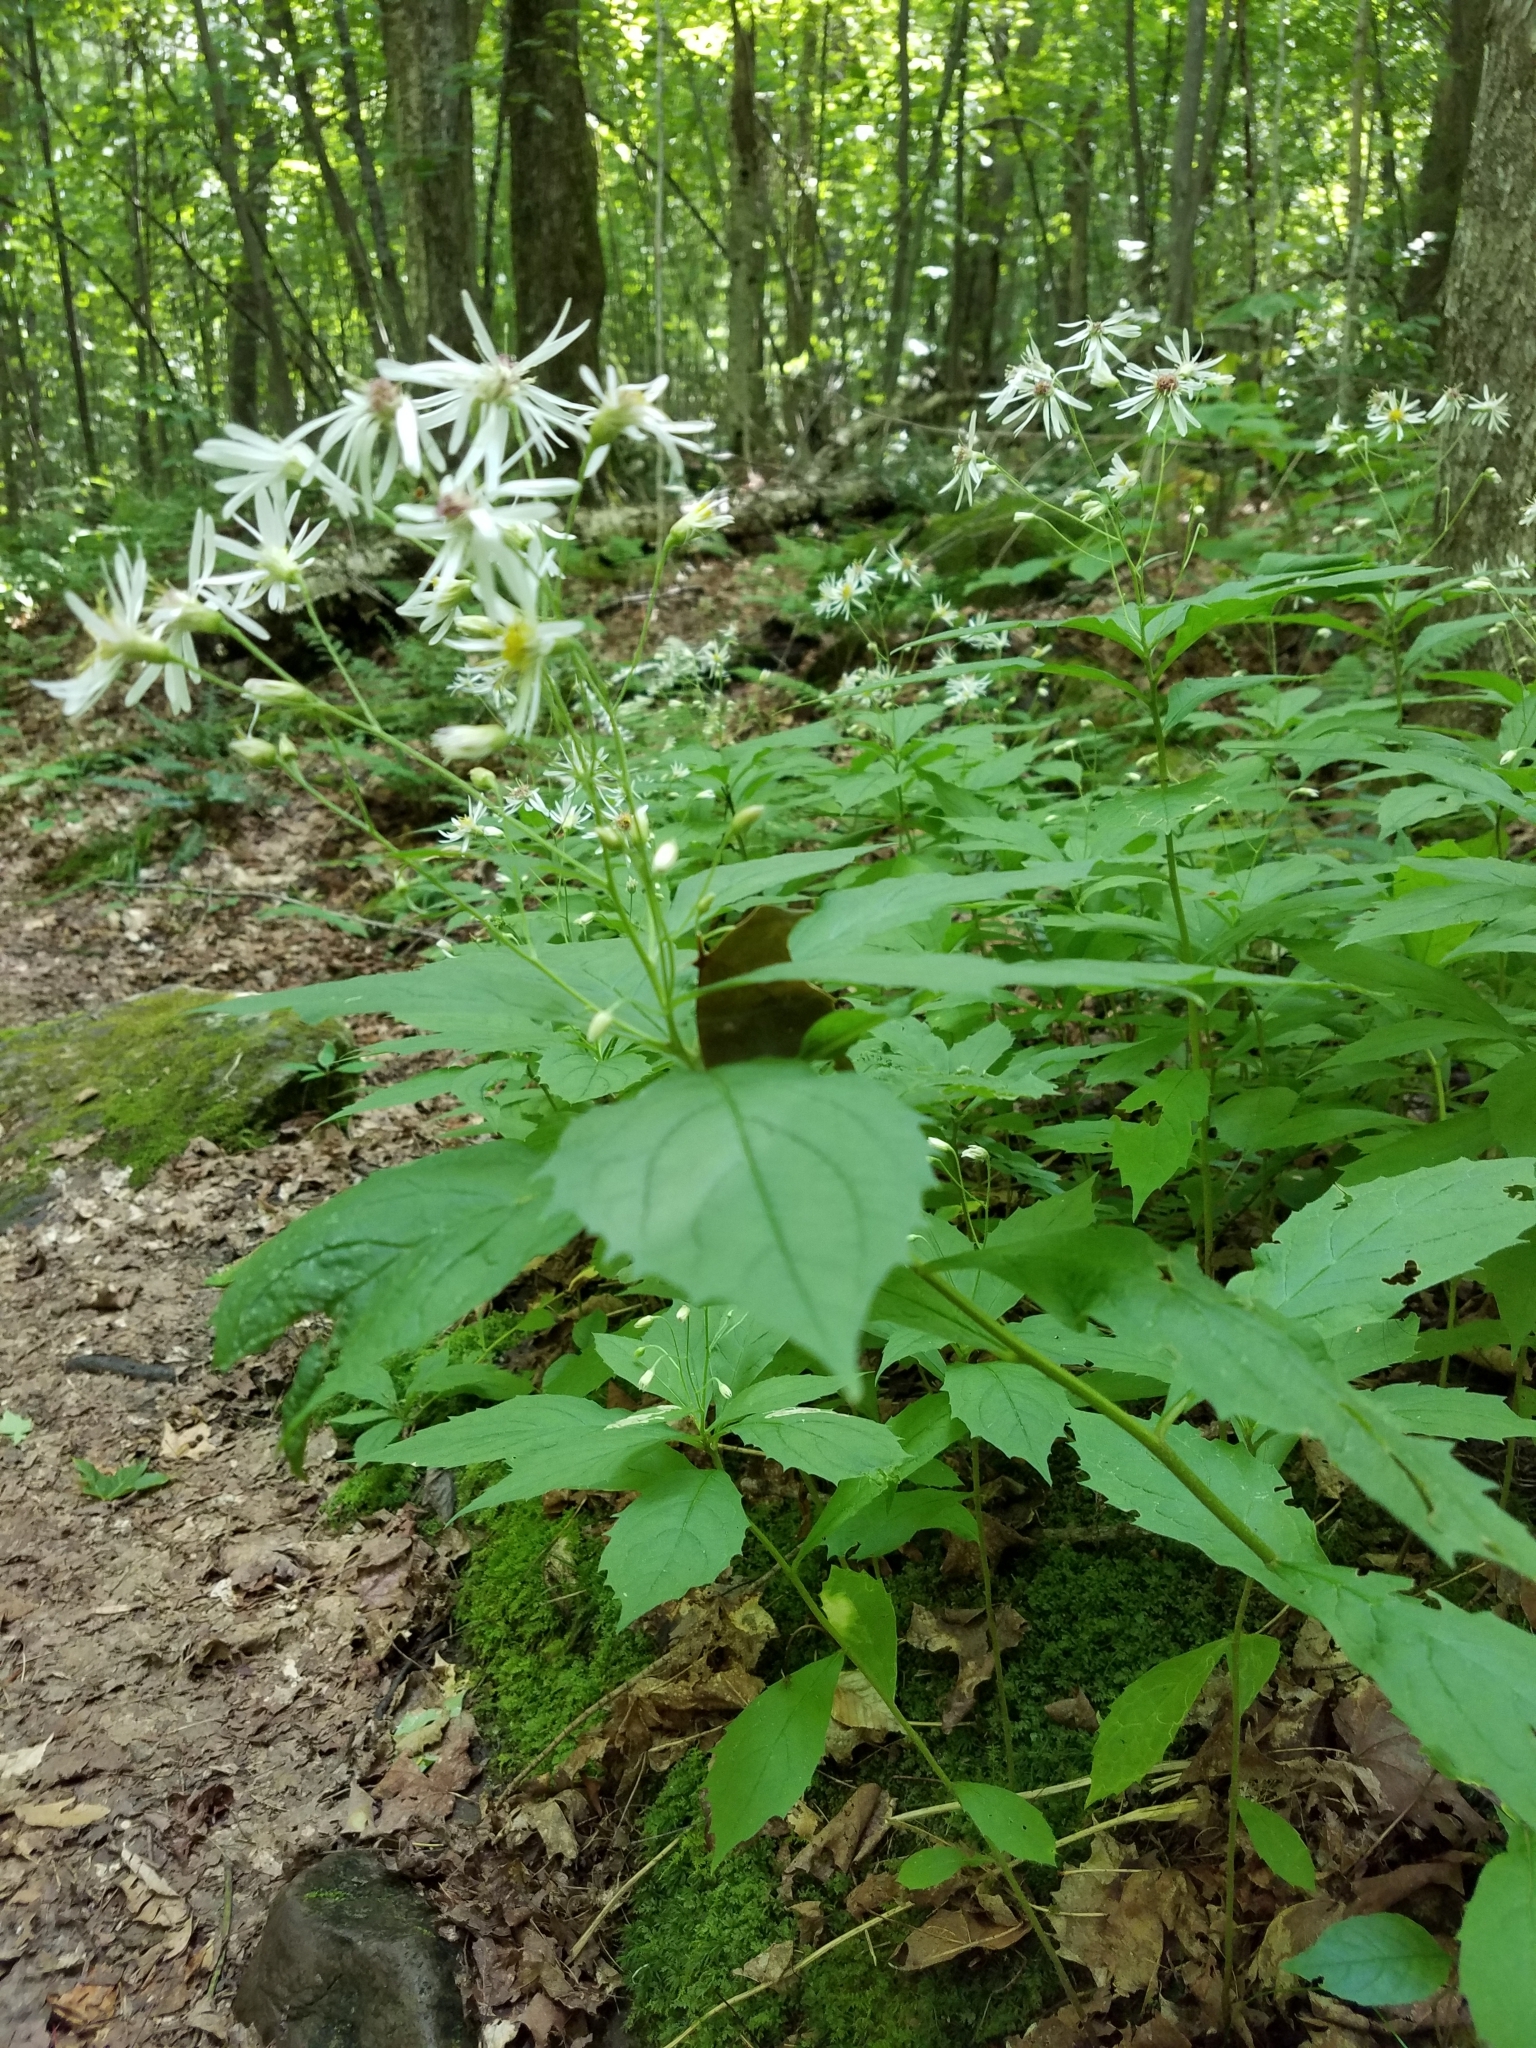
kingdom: Plantae
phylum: Tracheophyta
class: Magnoliopsida
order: Asterales
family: Asteraceae
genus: Oclemena
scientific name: Oclemena acuminata
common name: Mountain aster
